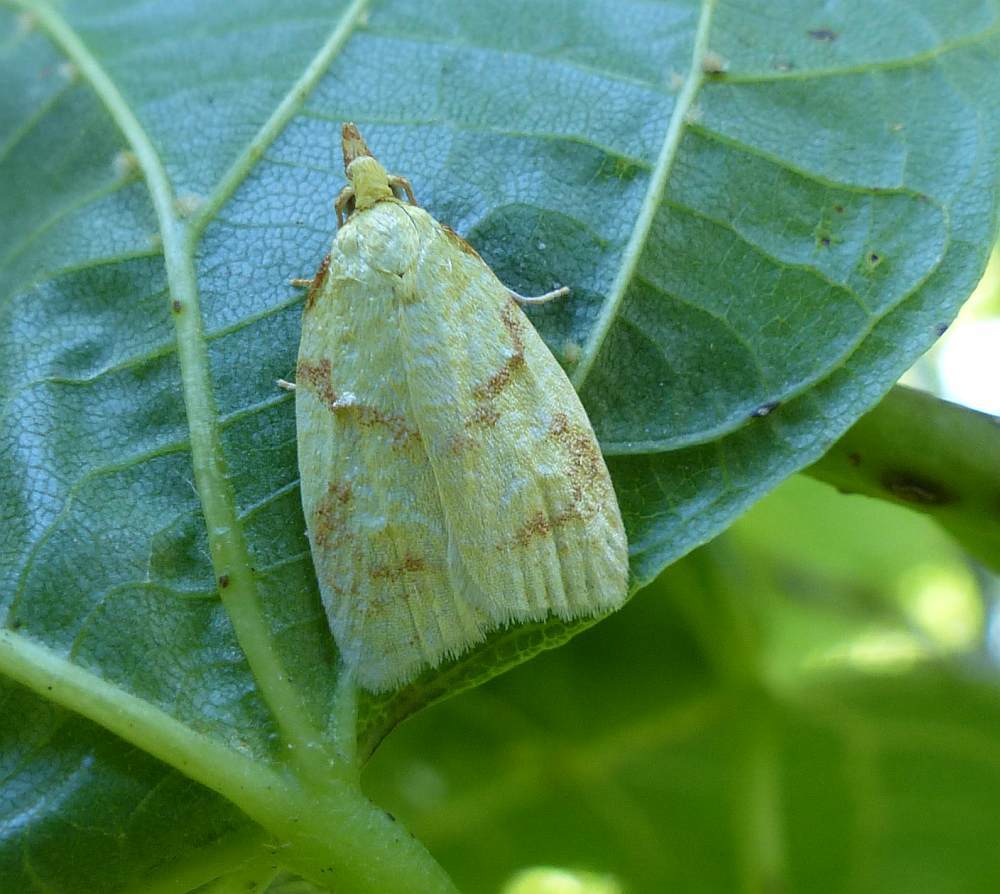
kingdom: Animalia
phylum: Arthropoda
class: Insecta
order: Lepidoptera
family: Tortricidae
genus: Cenopis
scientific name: Cenopis pettitana
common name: Maple-basswood leafroller moth
